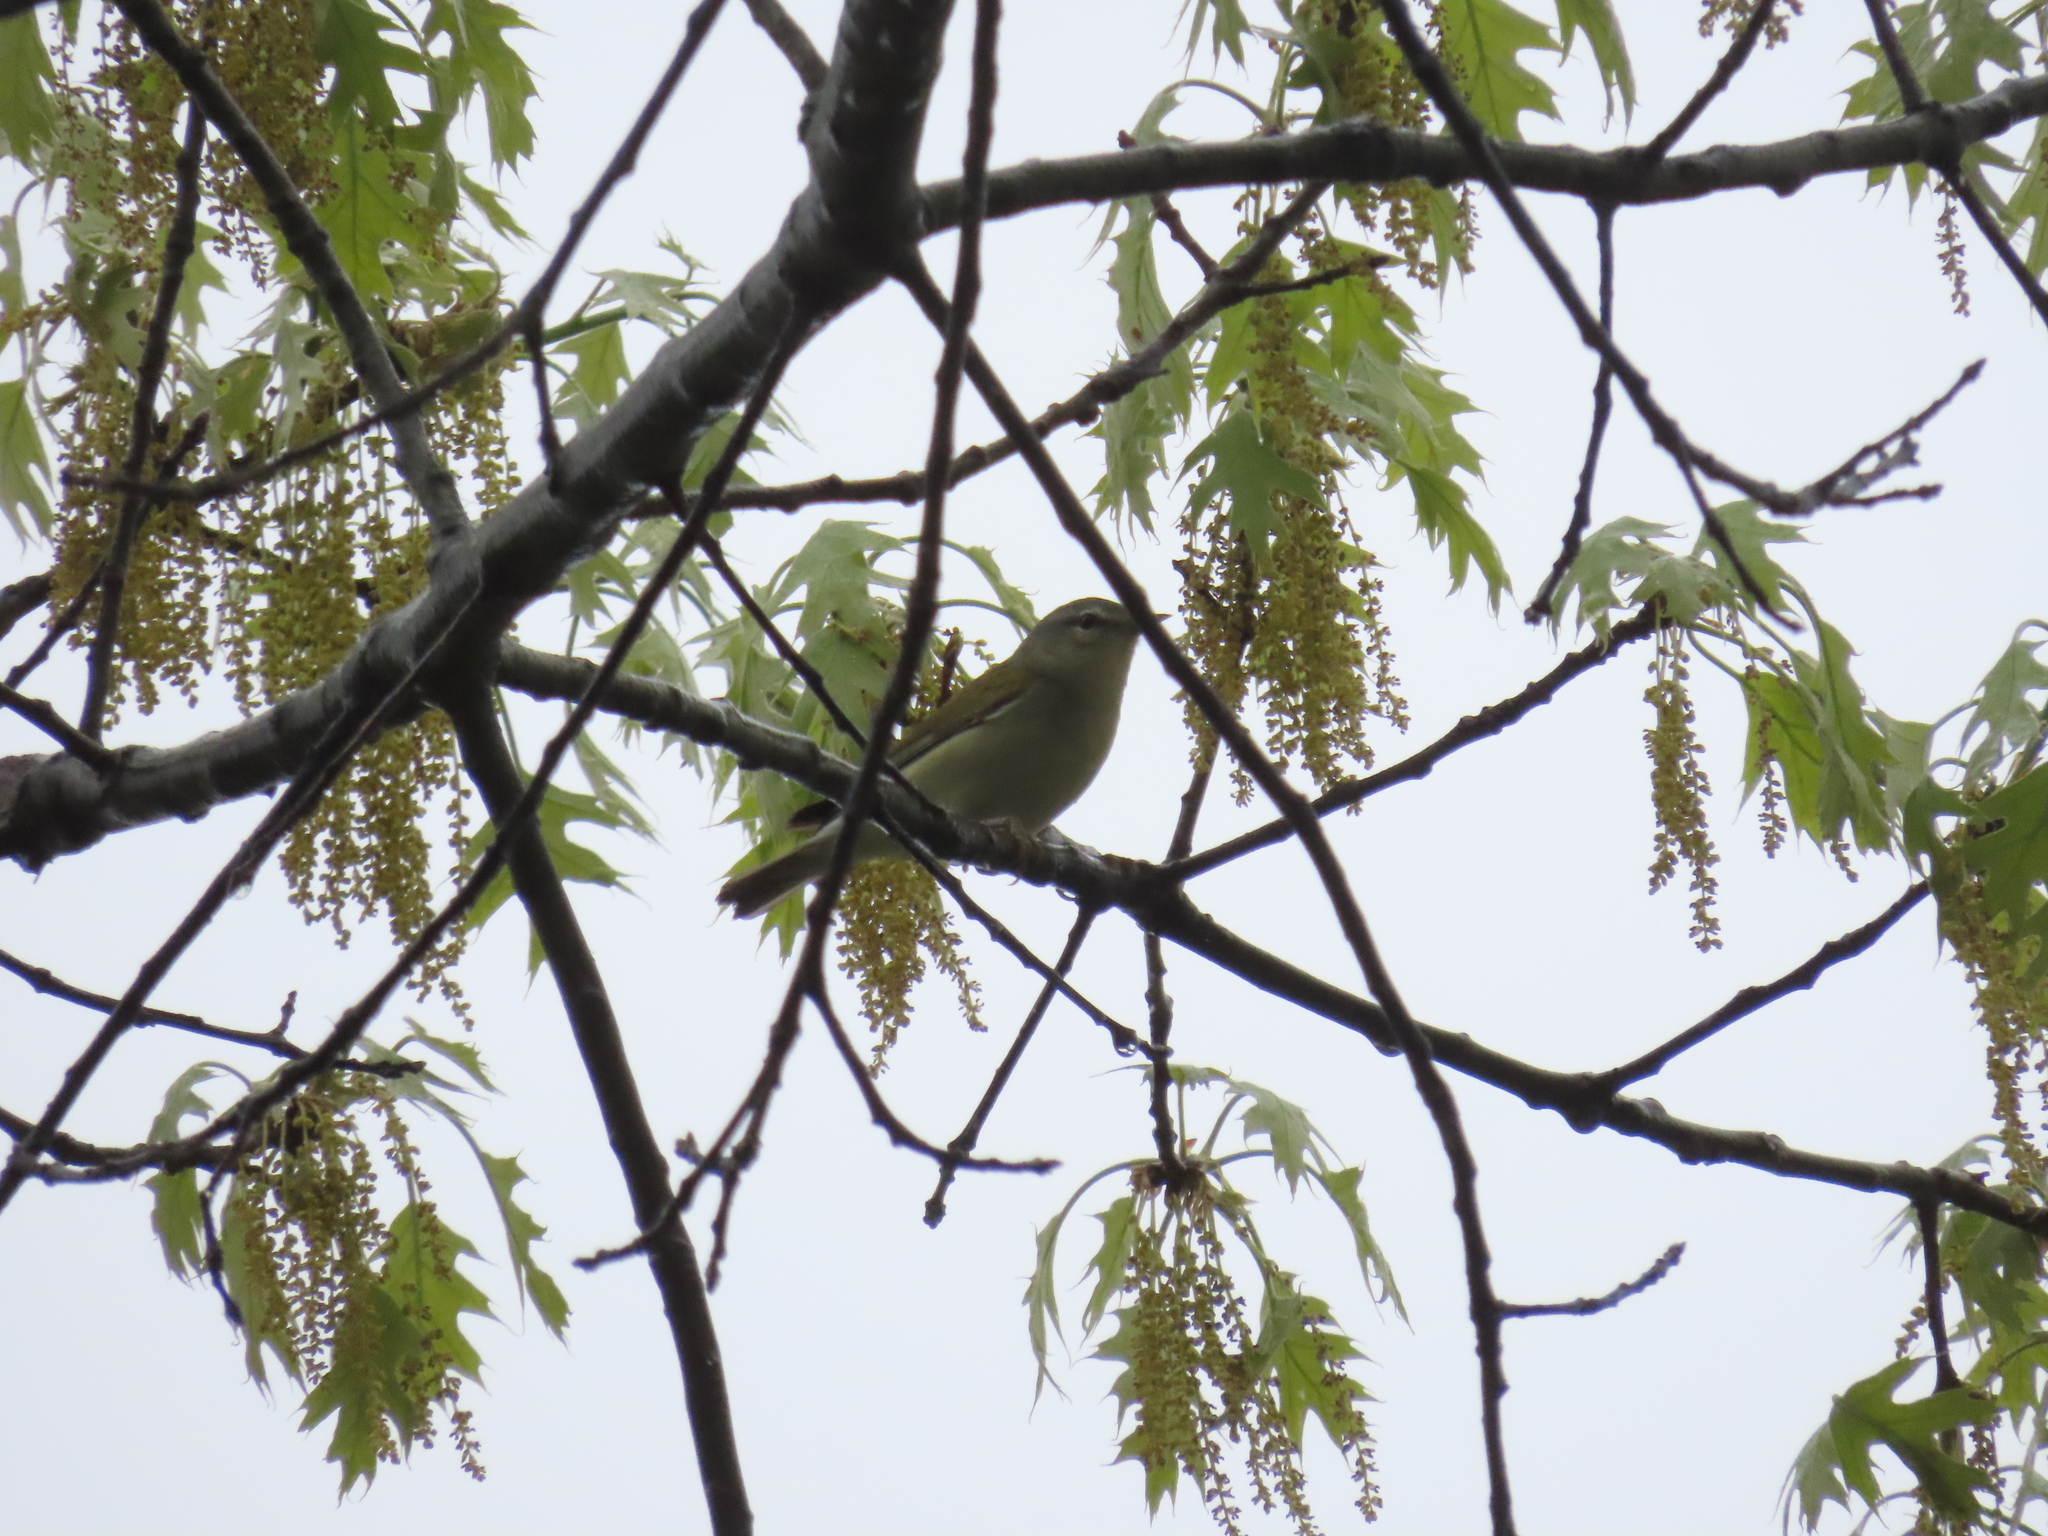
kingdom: Animalia
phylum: Chordata
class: Aves
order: Passeriformes
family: Parulidae
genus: Leiothlypis
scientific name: Leiothlypis peregrina
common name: Tennessee warbler
